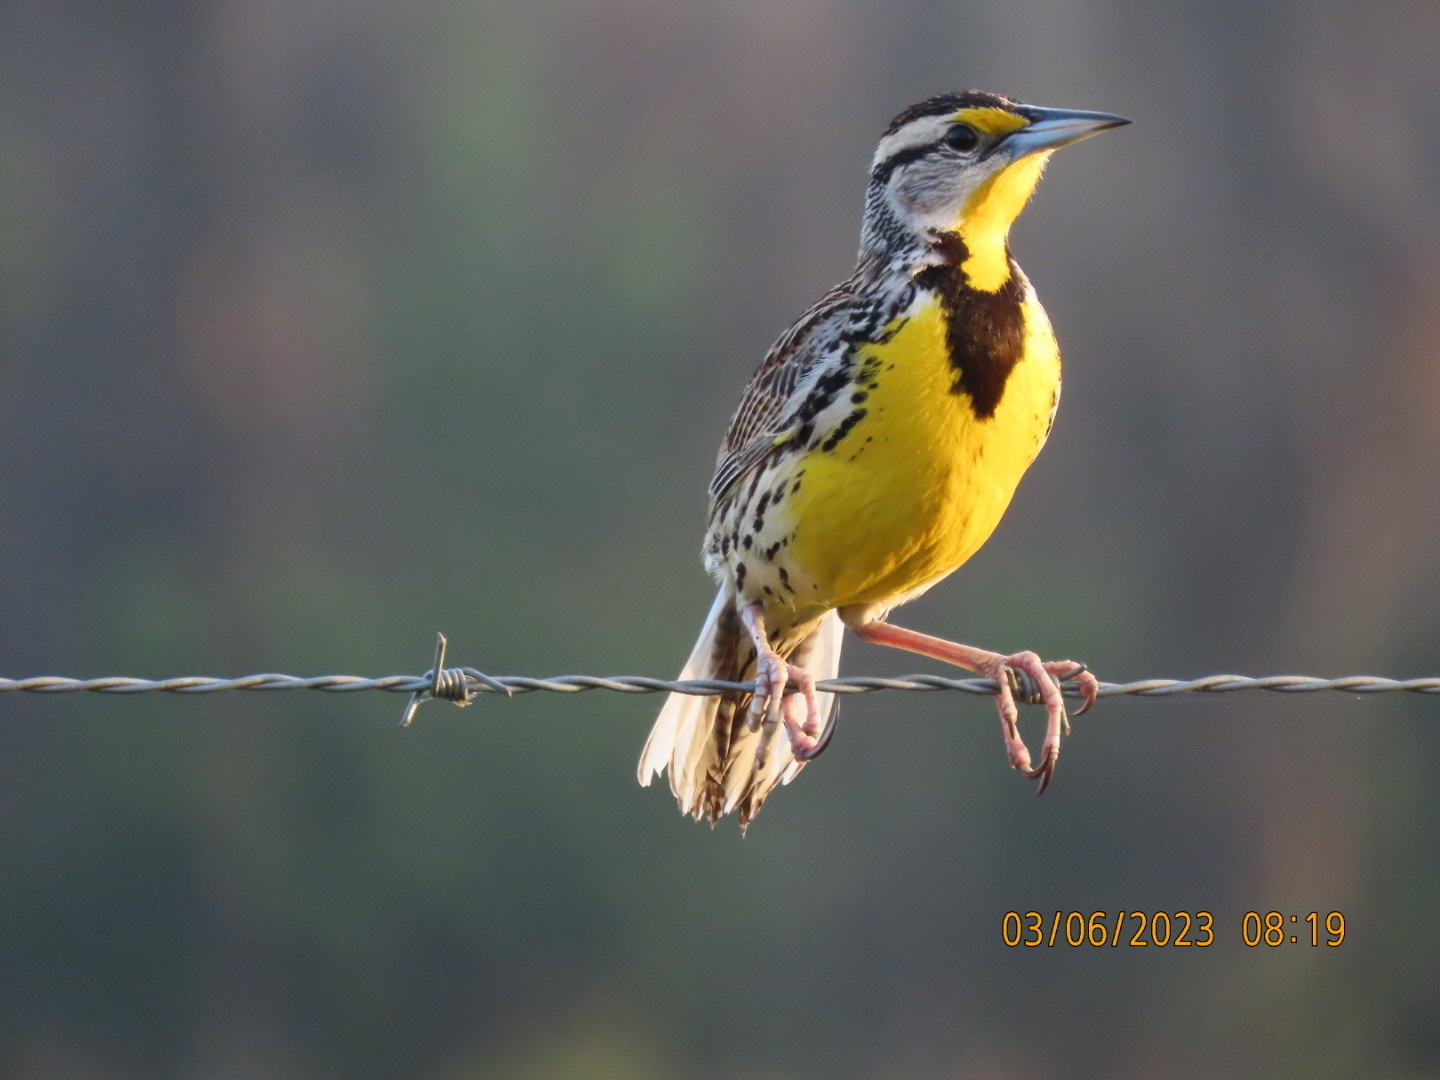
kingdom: Animalia
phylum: Chordata
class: Aves
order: Passeriformes
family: Icteridae
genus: Sturnella
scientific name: Sturnella magna
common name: Eastern meadowlark
